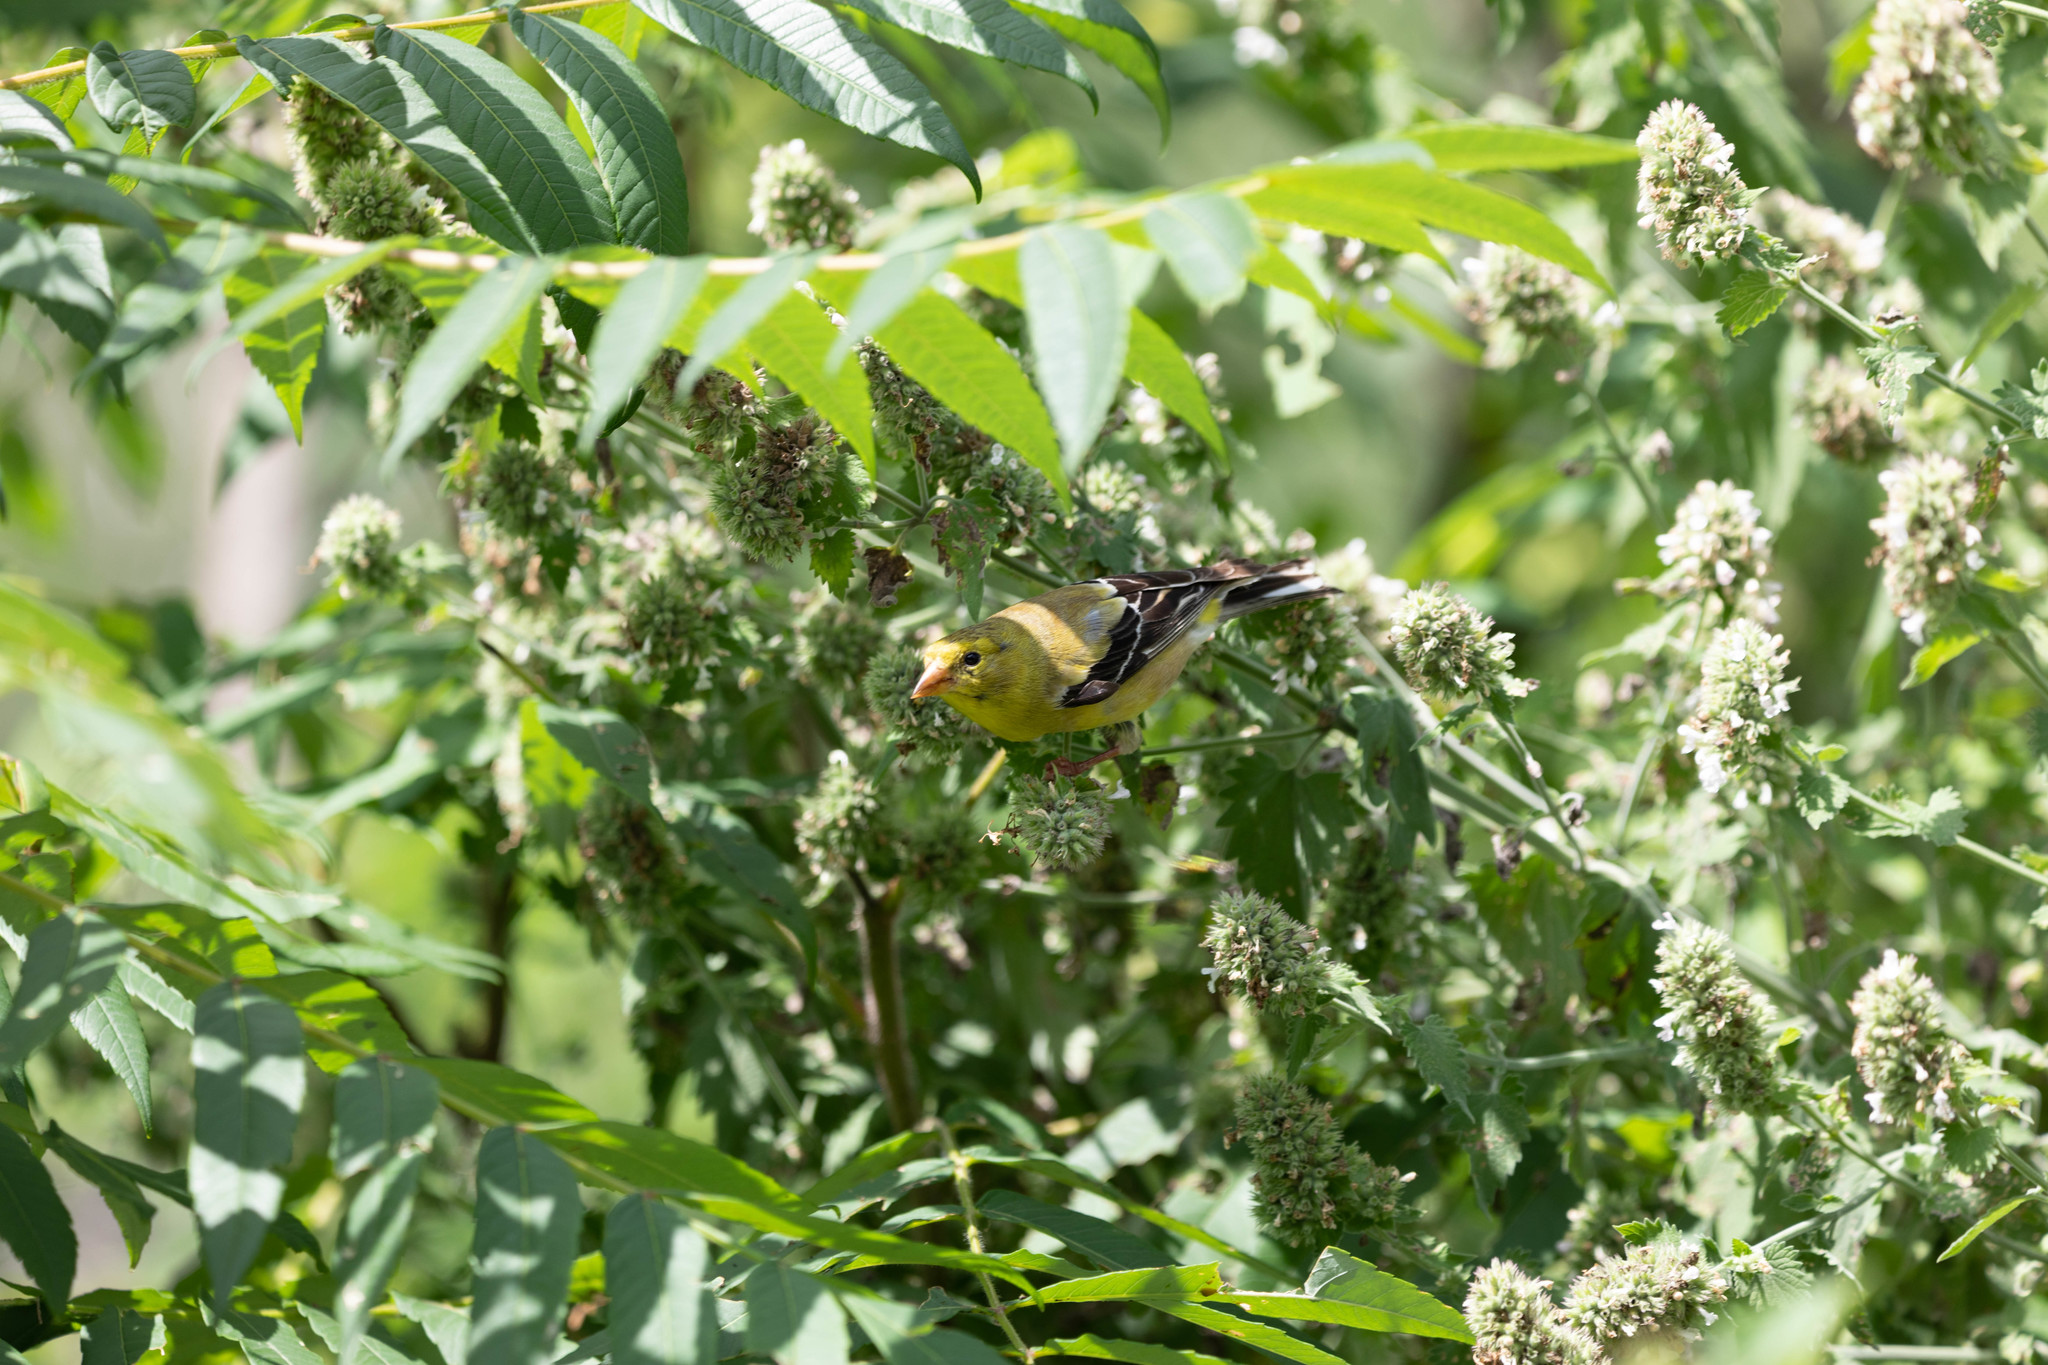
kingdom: Animalia
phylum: Chordata
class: Aves
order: Passeriformes
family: Fringillidae
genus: Spinus
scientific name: Spinus tristis
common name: American goldfinch
